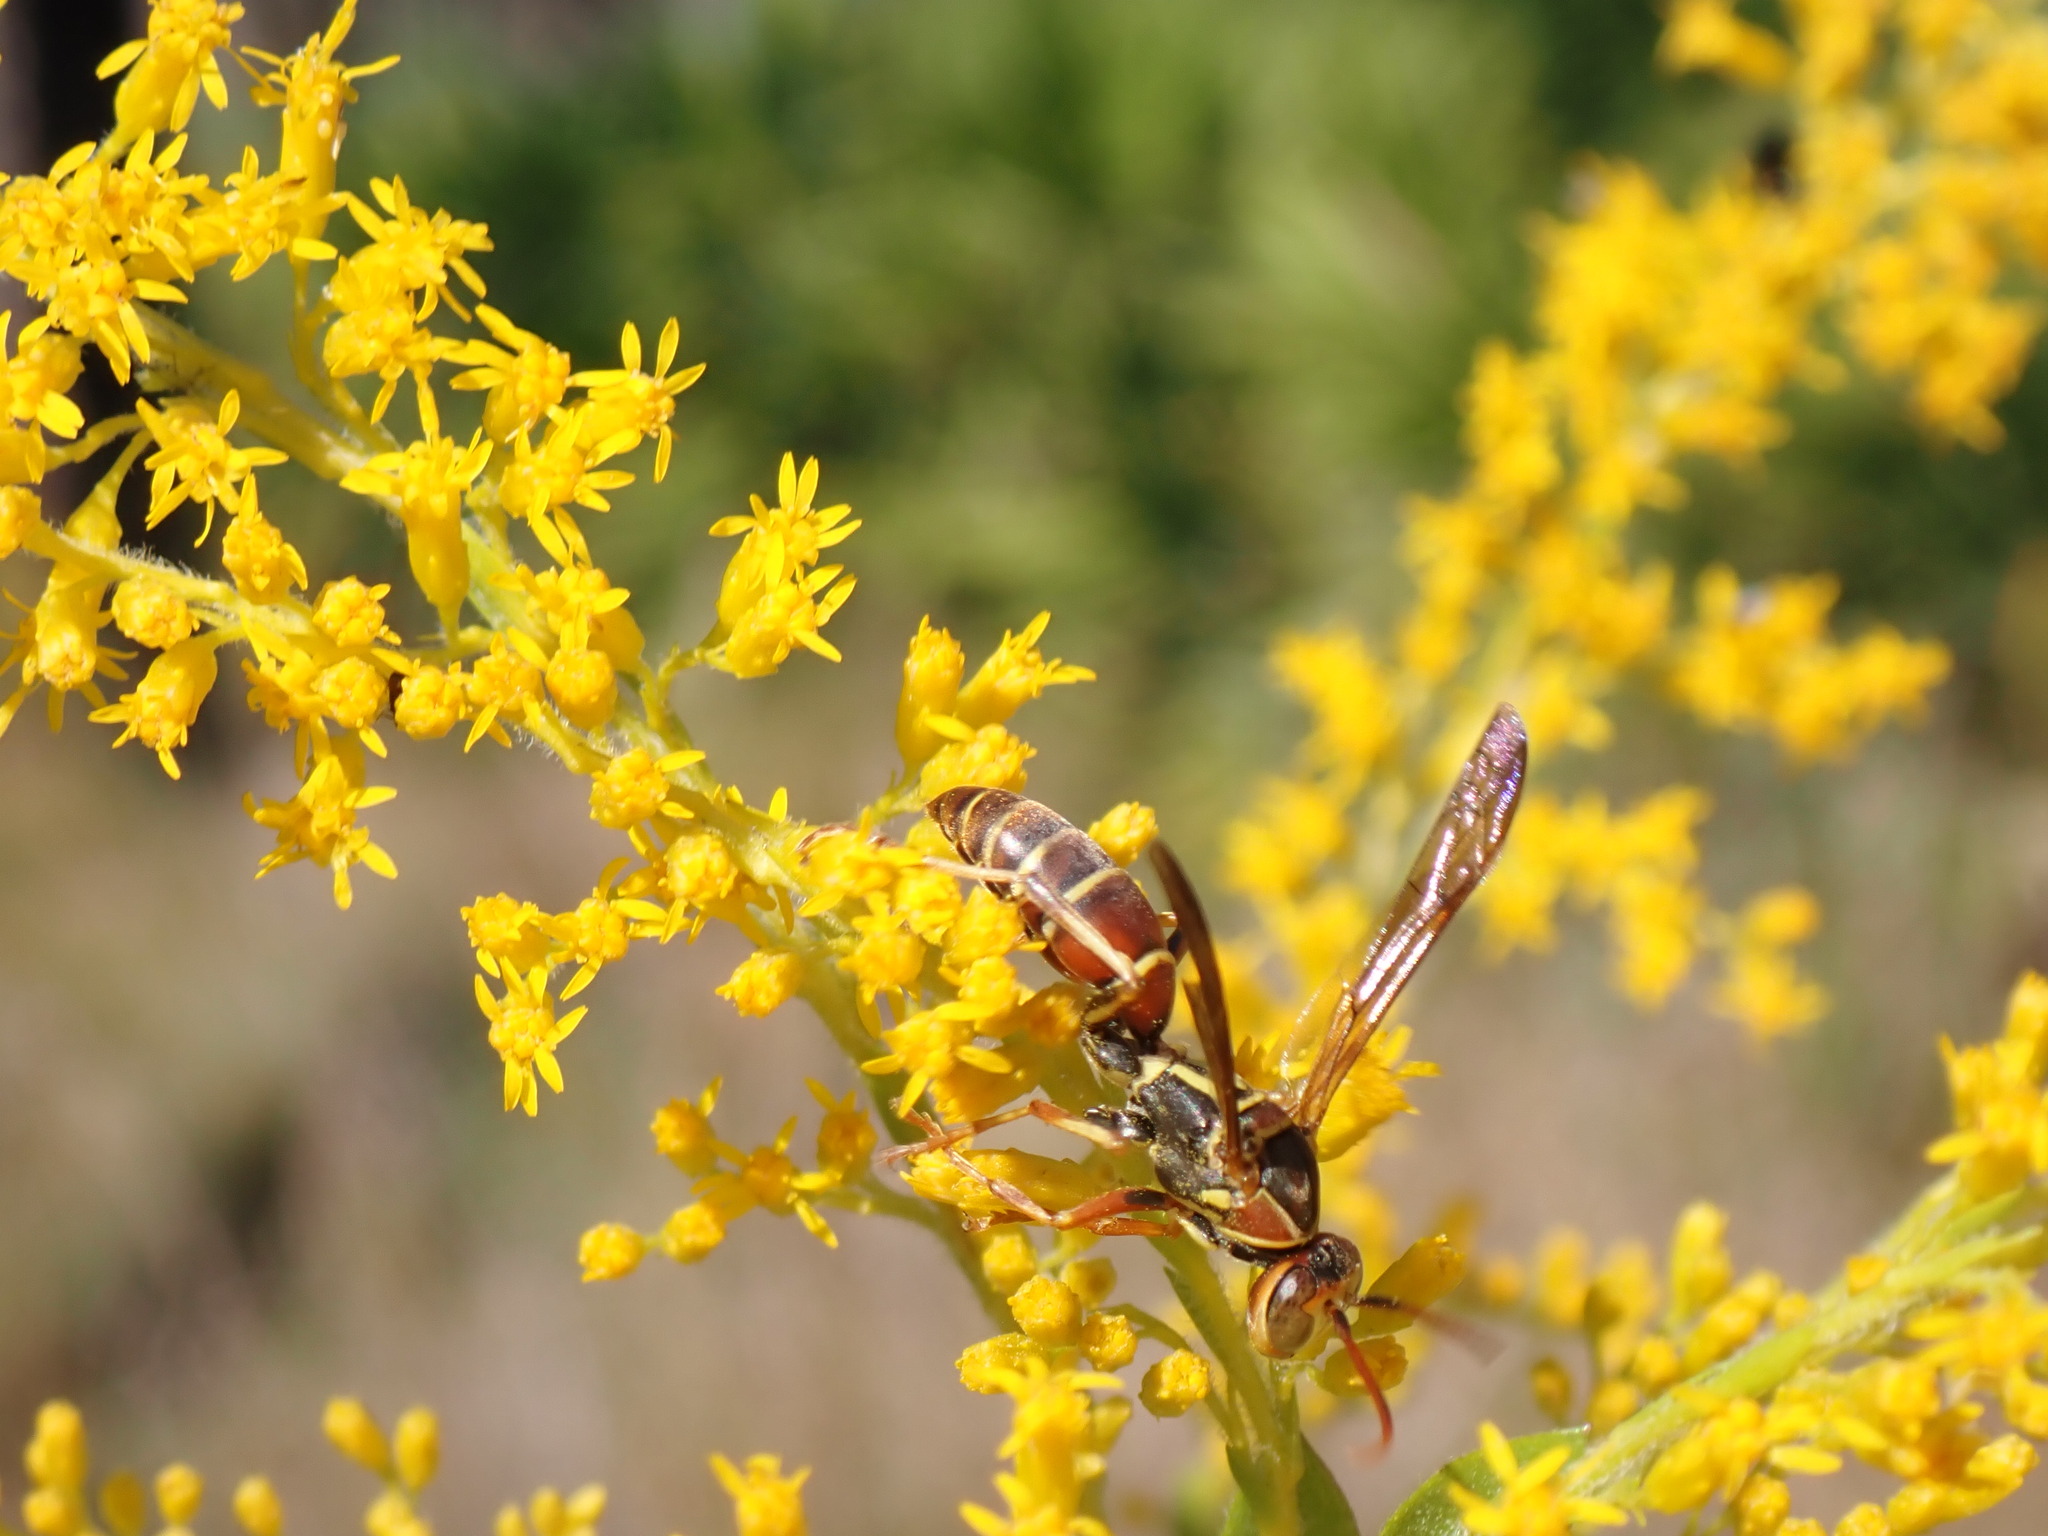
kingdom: Animalia
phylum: Arthropoda
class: Insecta
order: Hymenoptera
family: Eumenidae
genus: Polistes
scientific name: Polistes dorsalis
